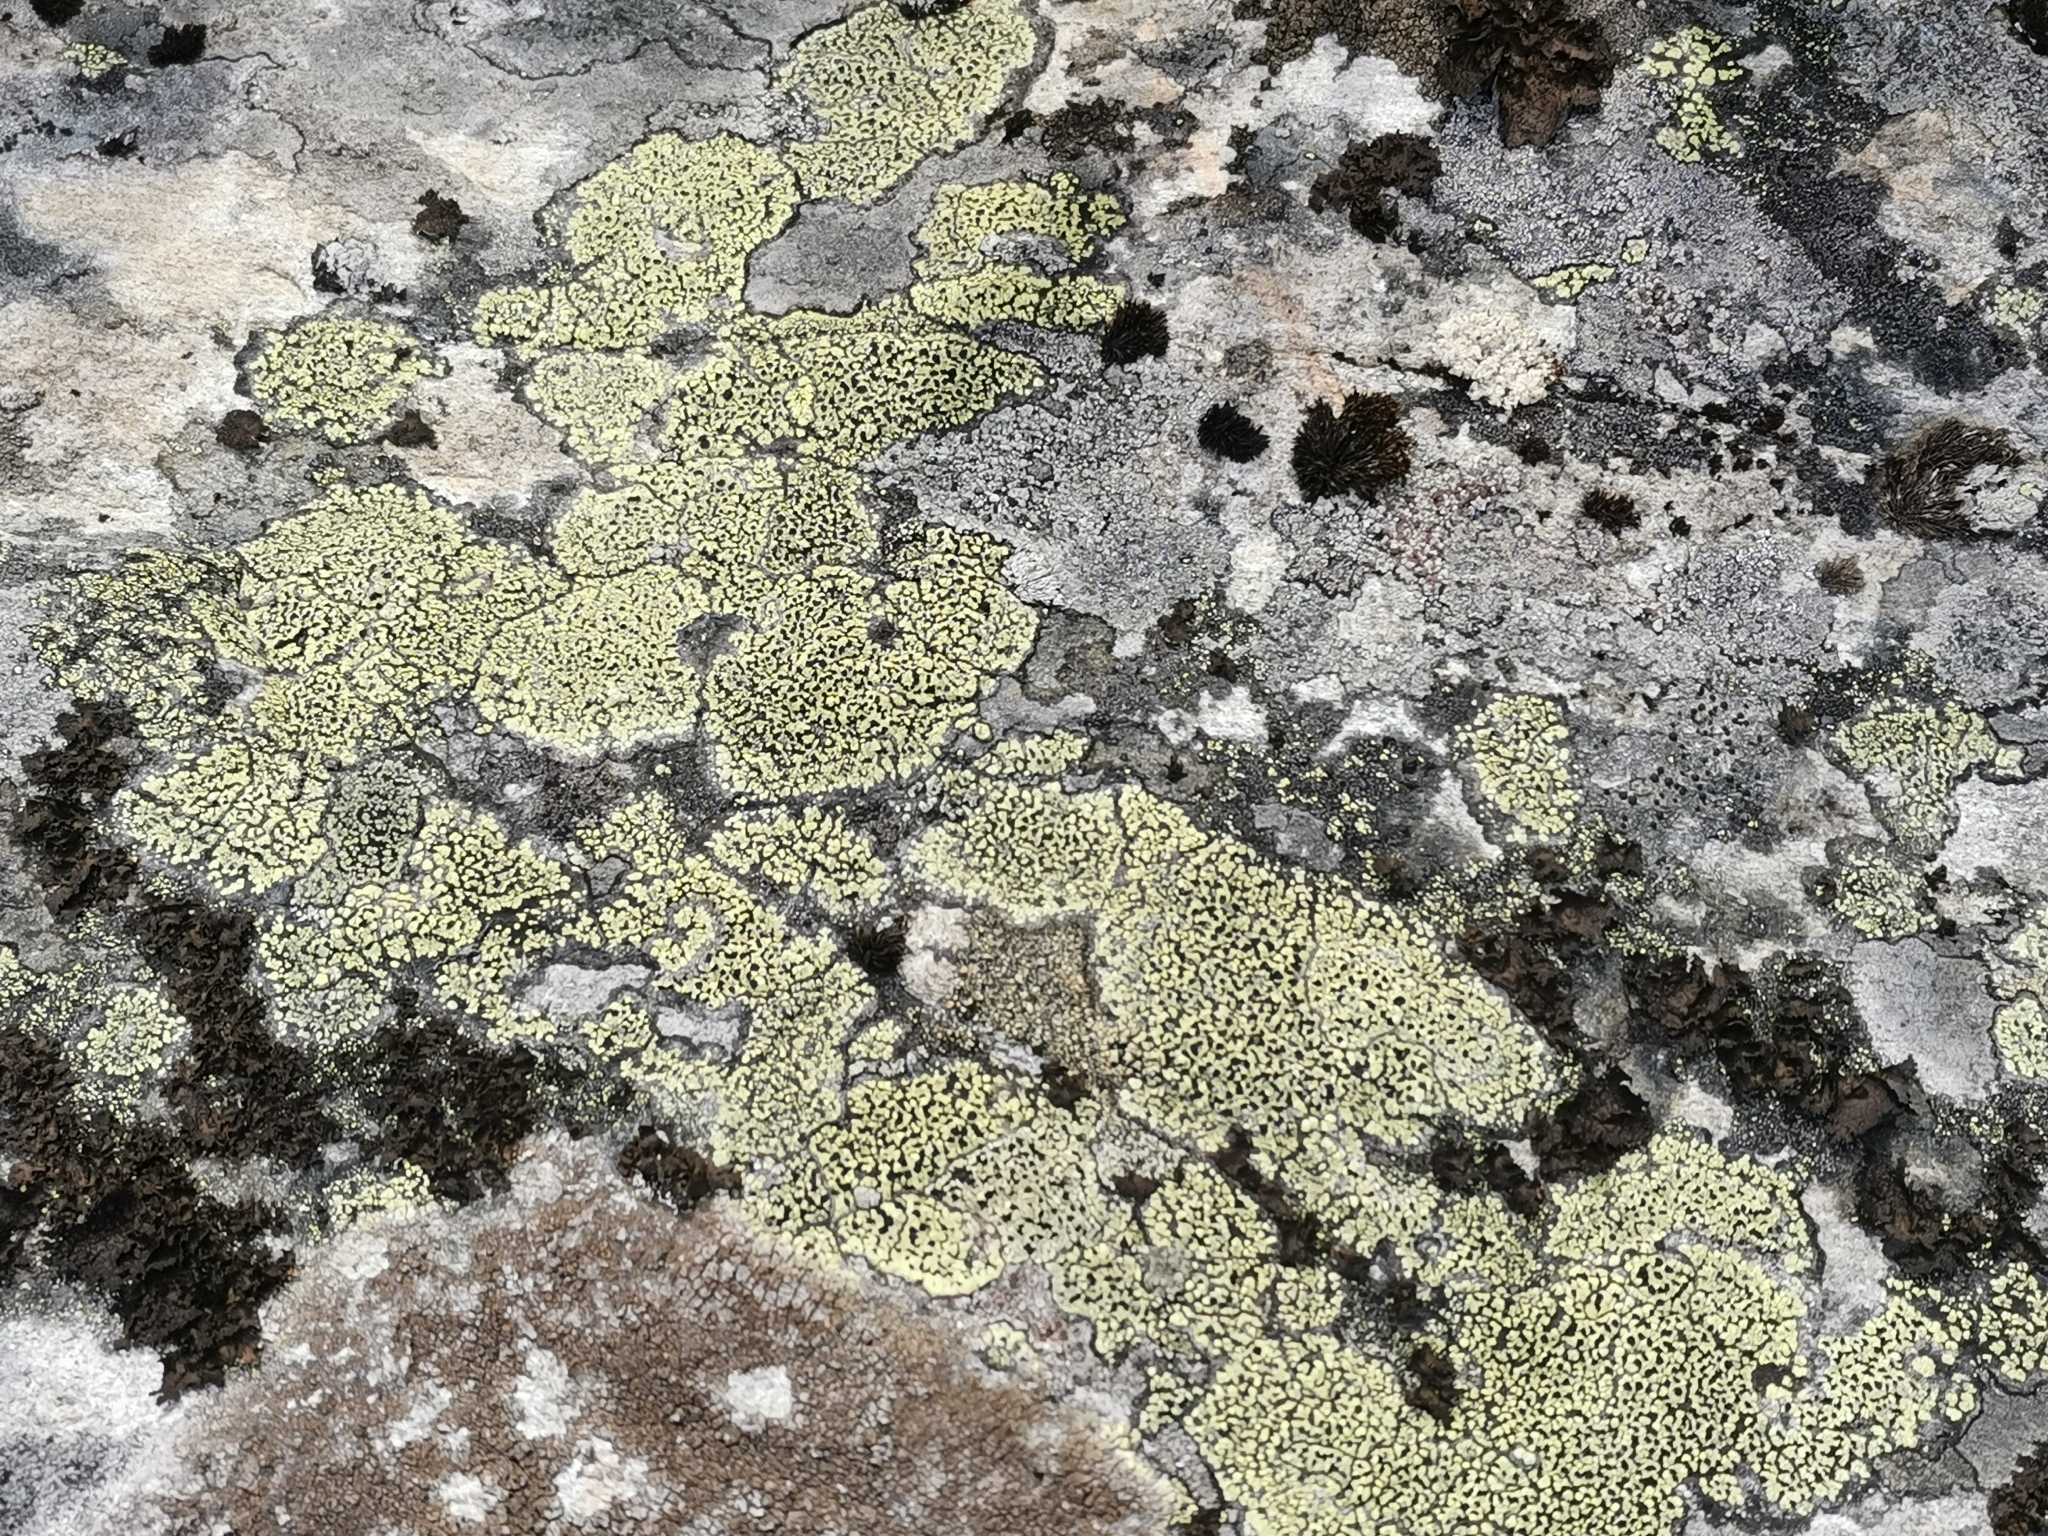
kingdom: Fungi
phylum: Ascomycota
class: Lecanoromycetes
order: Rhizocarpales
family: Rhizocarpaceae
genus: Rhizocarpon
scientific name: Rhizocarpon geographicum
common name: Yellow map lichen
